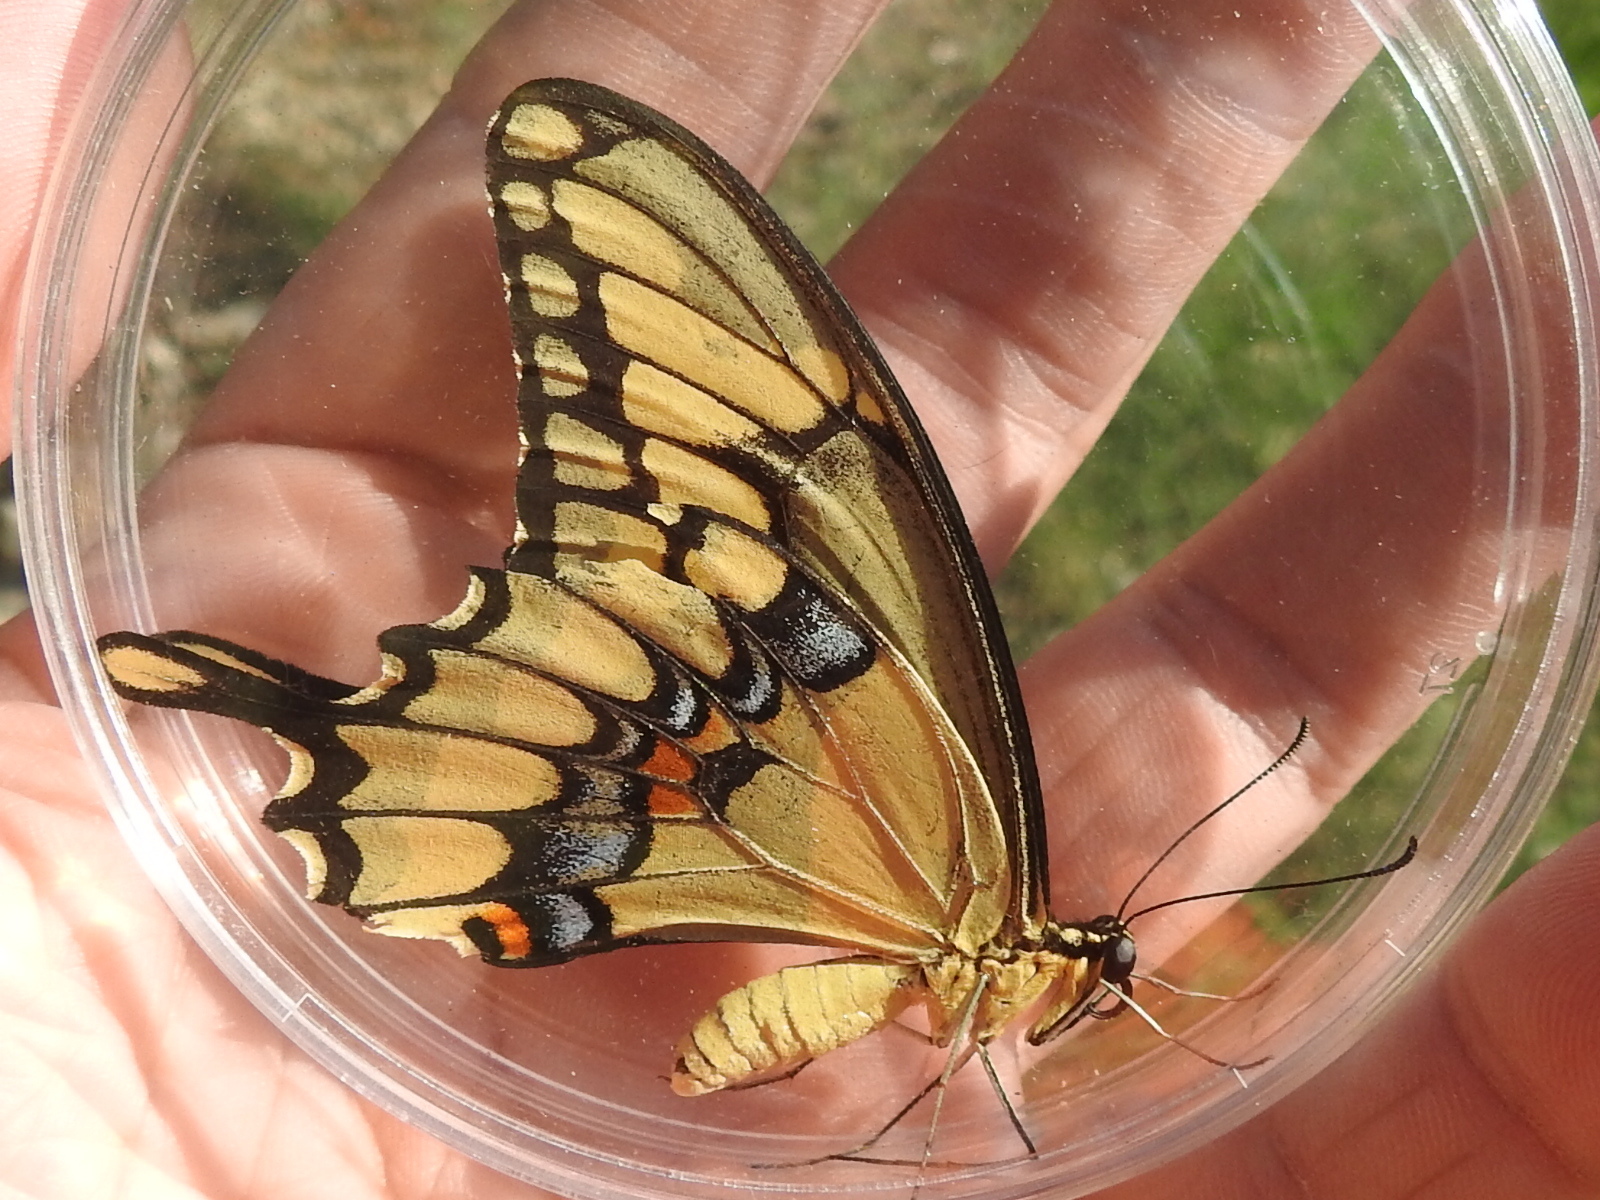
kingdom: Animalia
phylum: Arthropoda
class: Insecta
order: Lepidoptera
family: Papilionidae
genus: Papilio
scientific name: Papilio cresphontes
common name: Giant swallowtail
